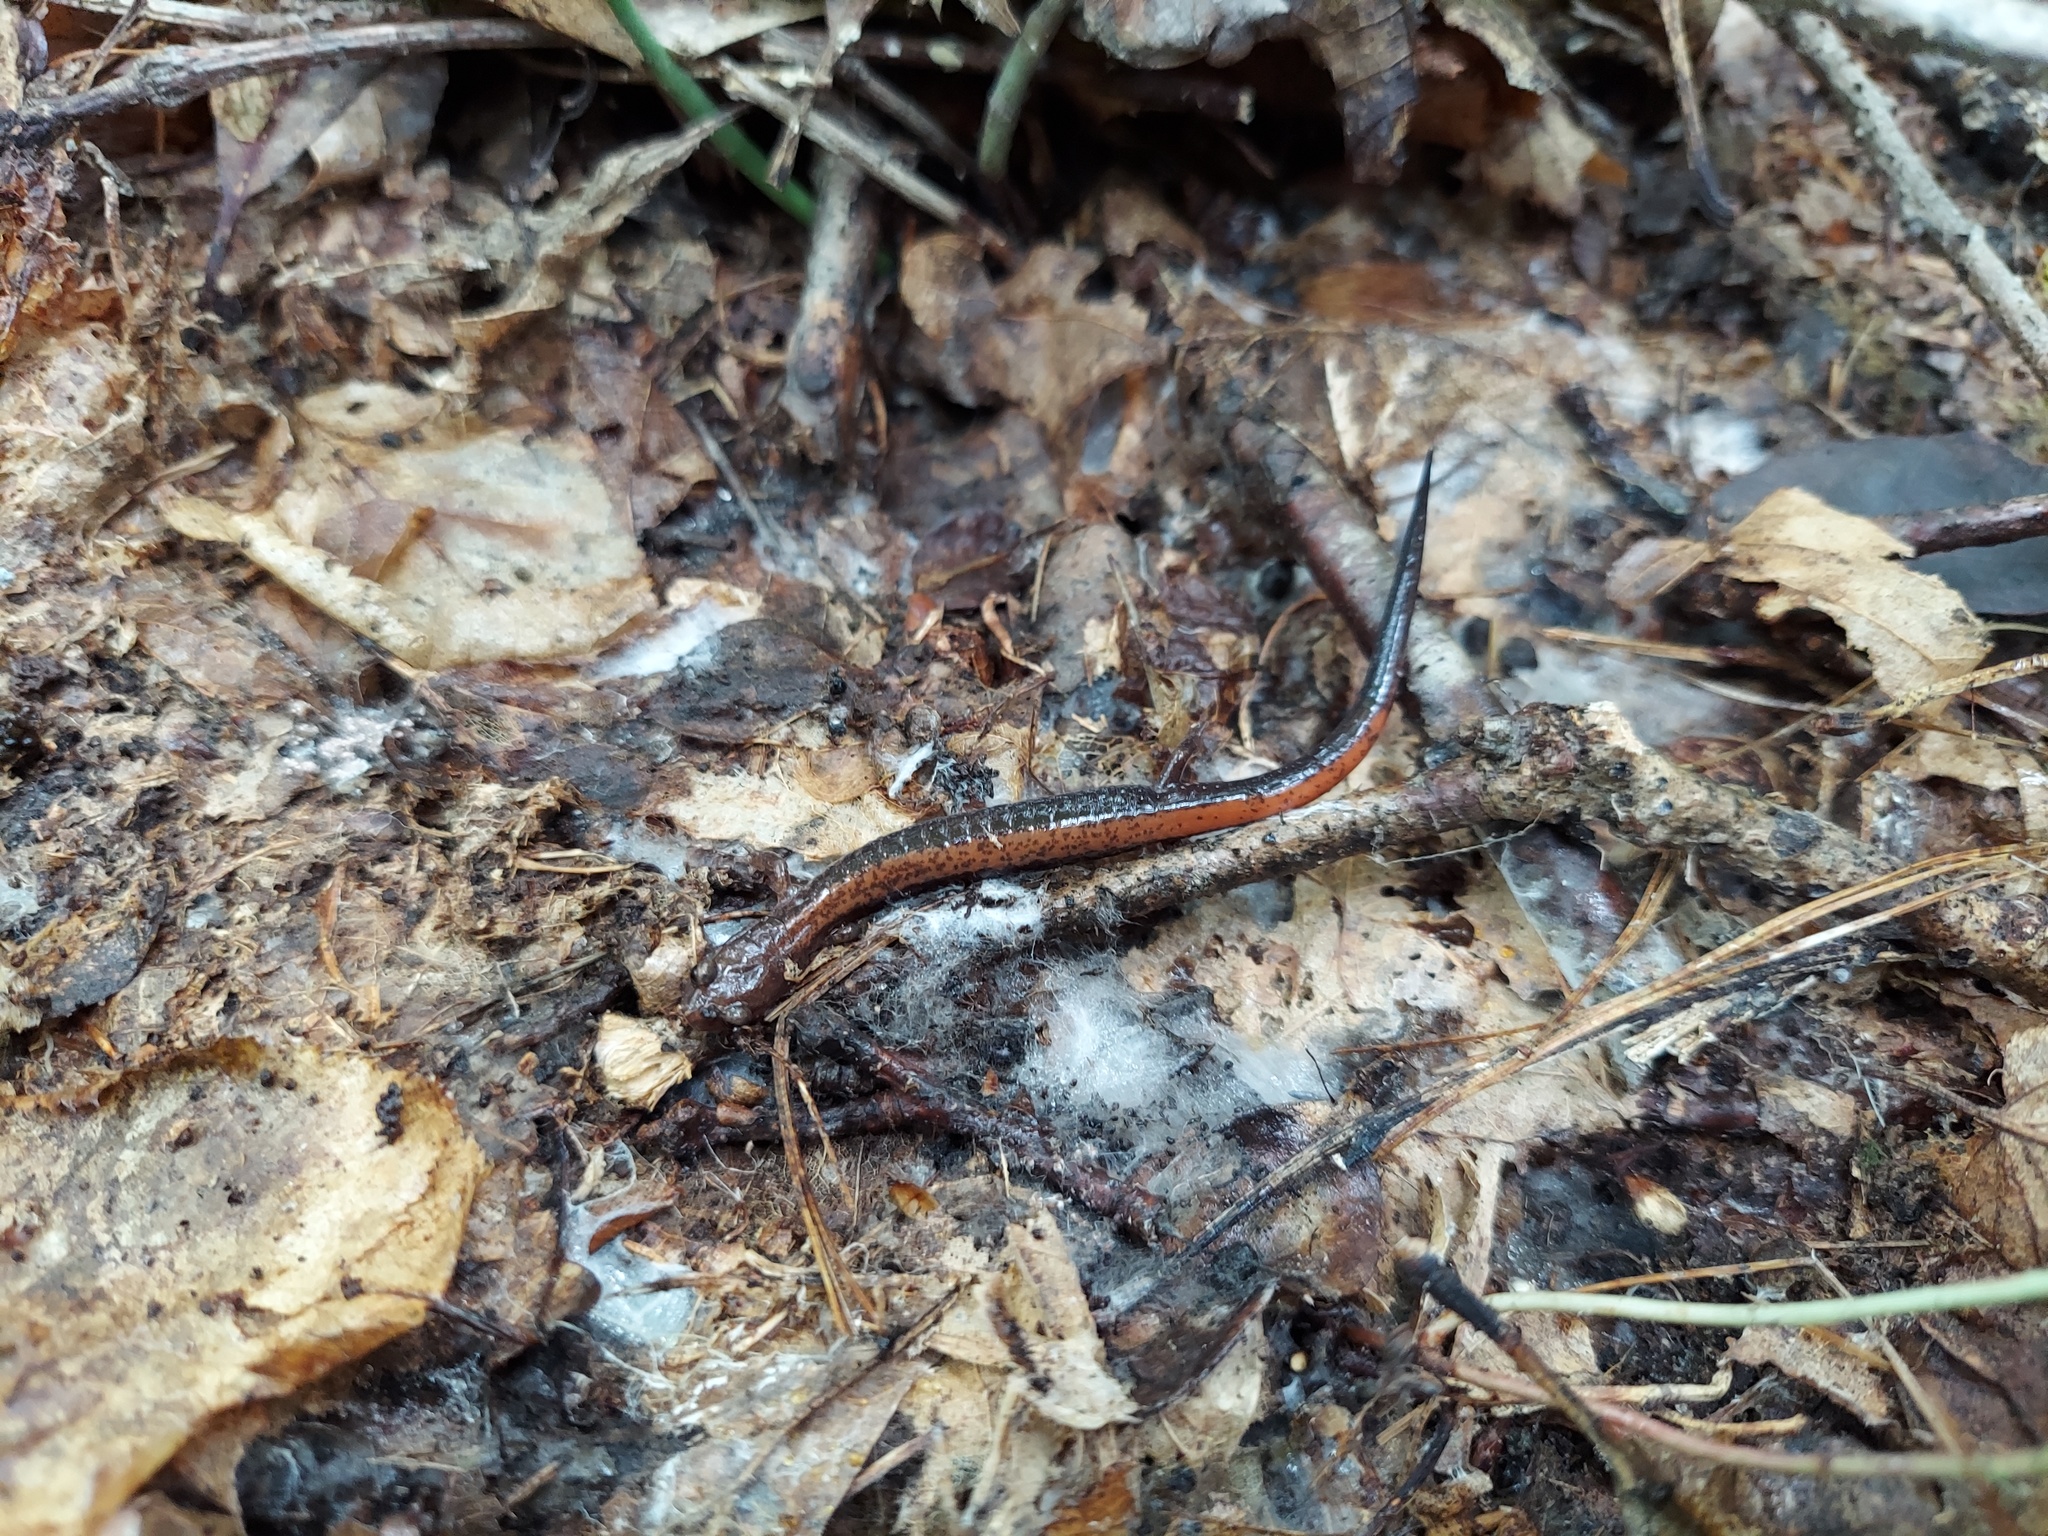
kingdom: Animalia
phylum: Chordata
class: Amphibia
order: Caudata
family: Plethodontidae
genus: Plethodon
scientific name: Plethodon cinereus
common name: Redback salamander
